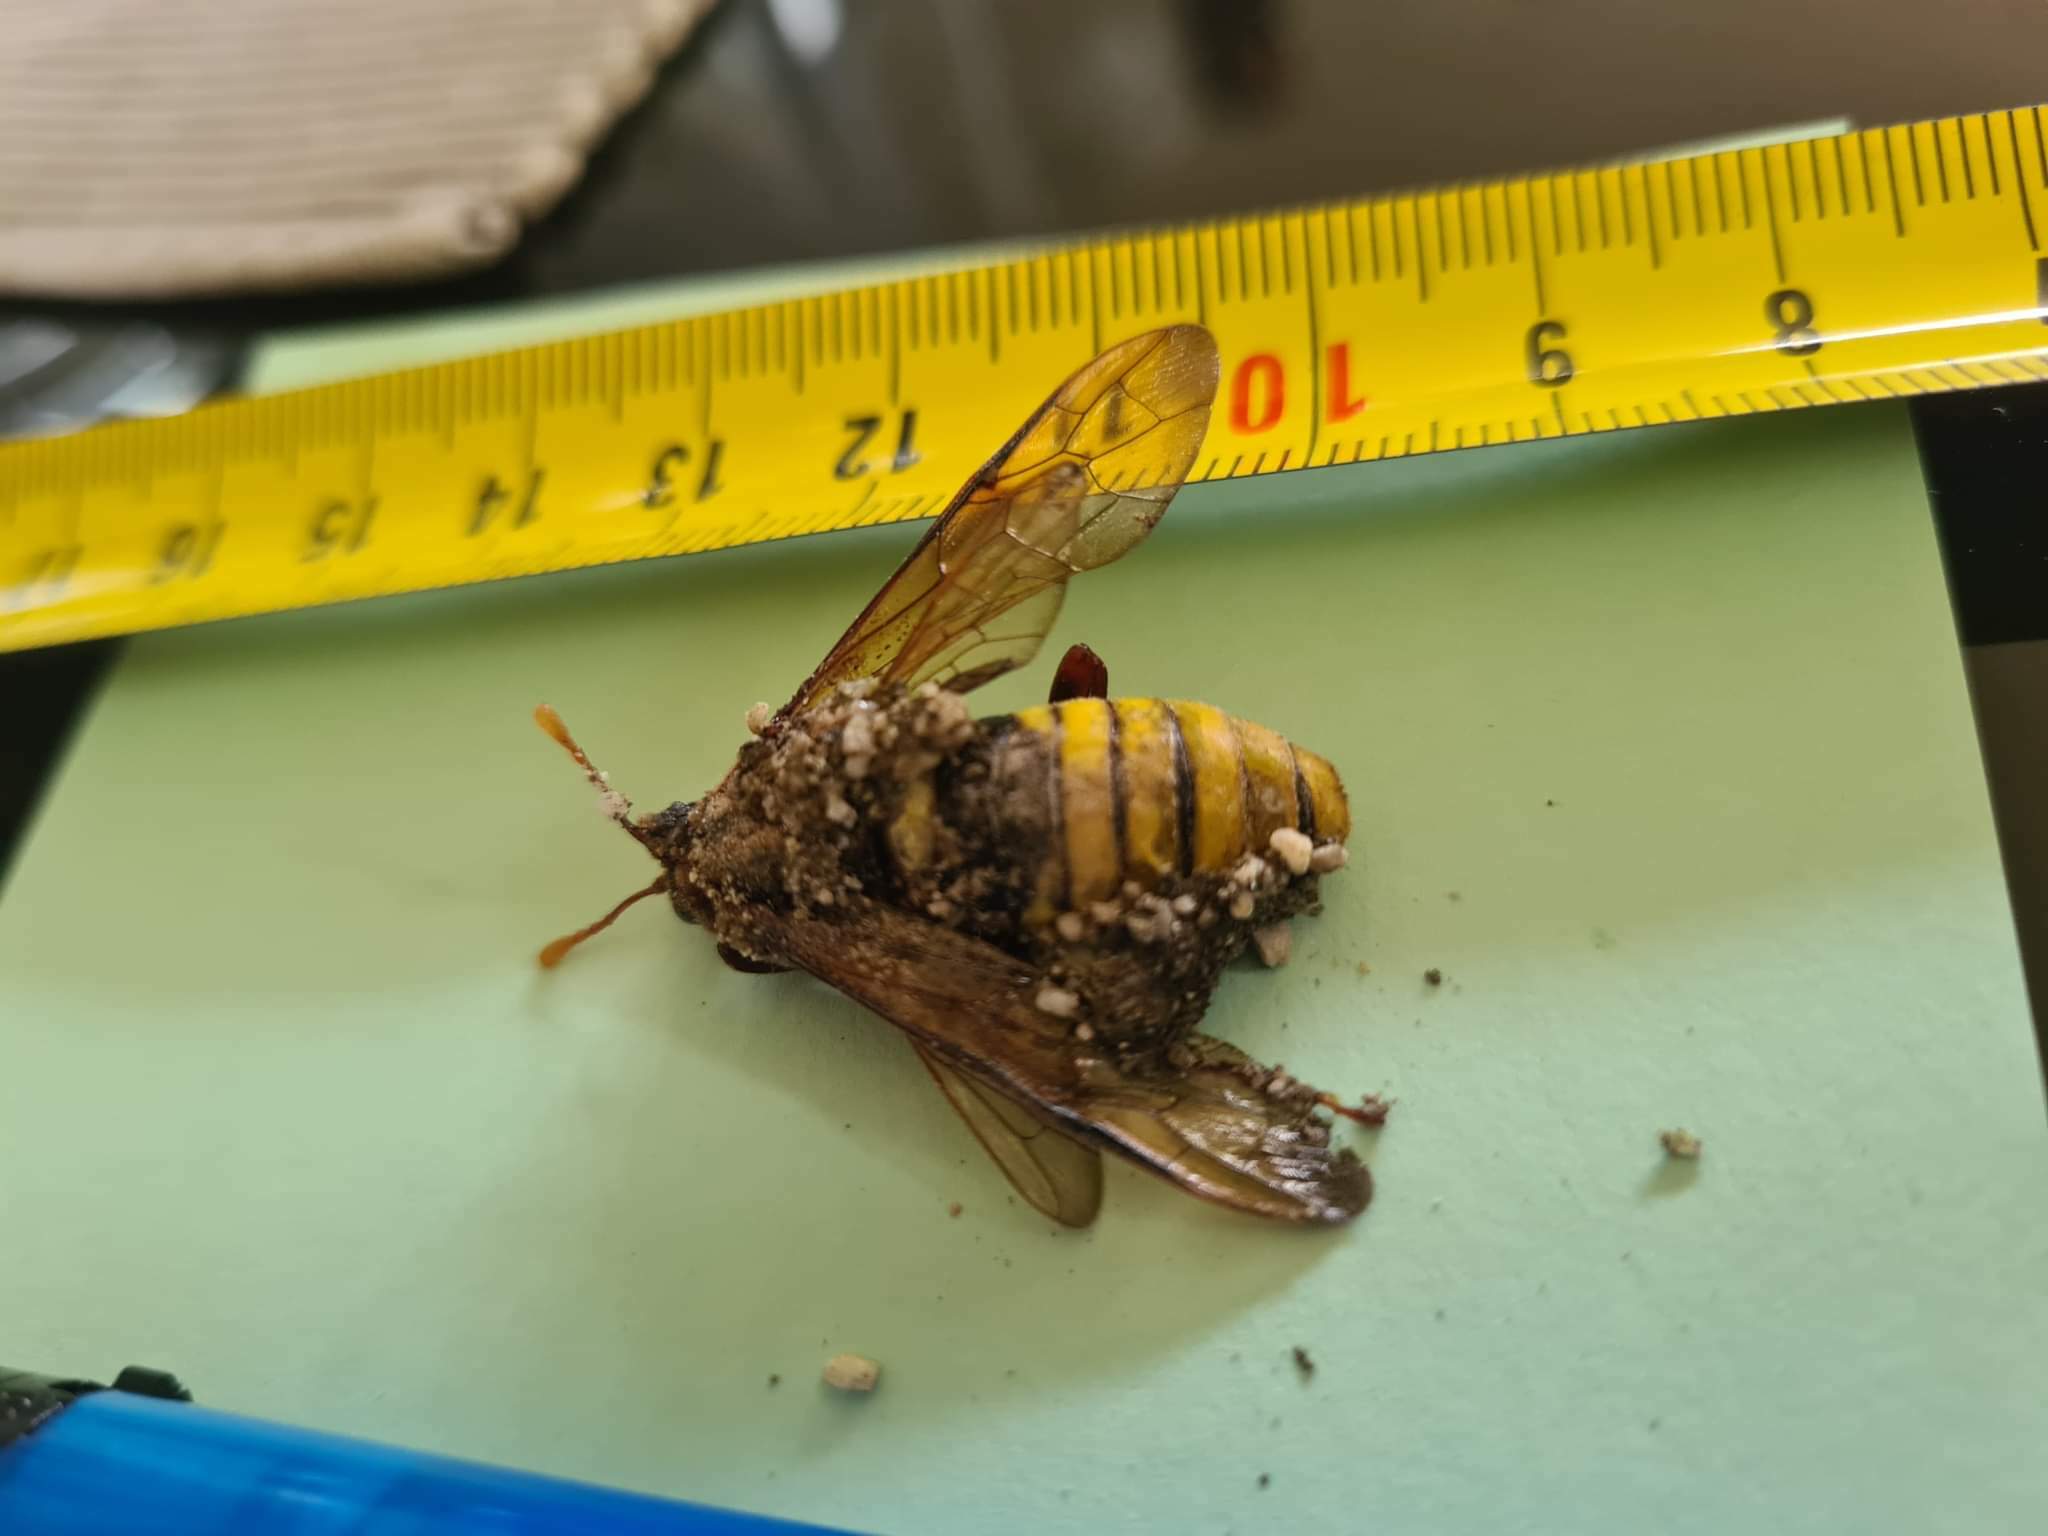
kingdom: Animalia
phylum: Arthropoda
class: Insecta
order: Hymenoptera
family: Cimbicidae
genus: Cimbex
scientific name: Cimbex connatus
